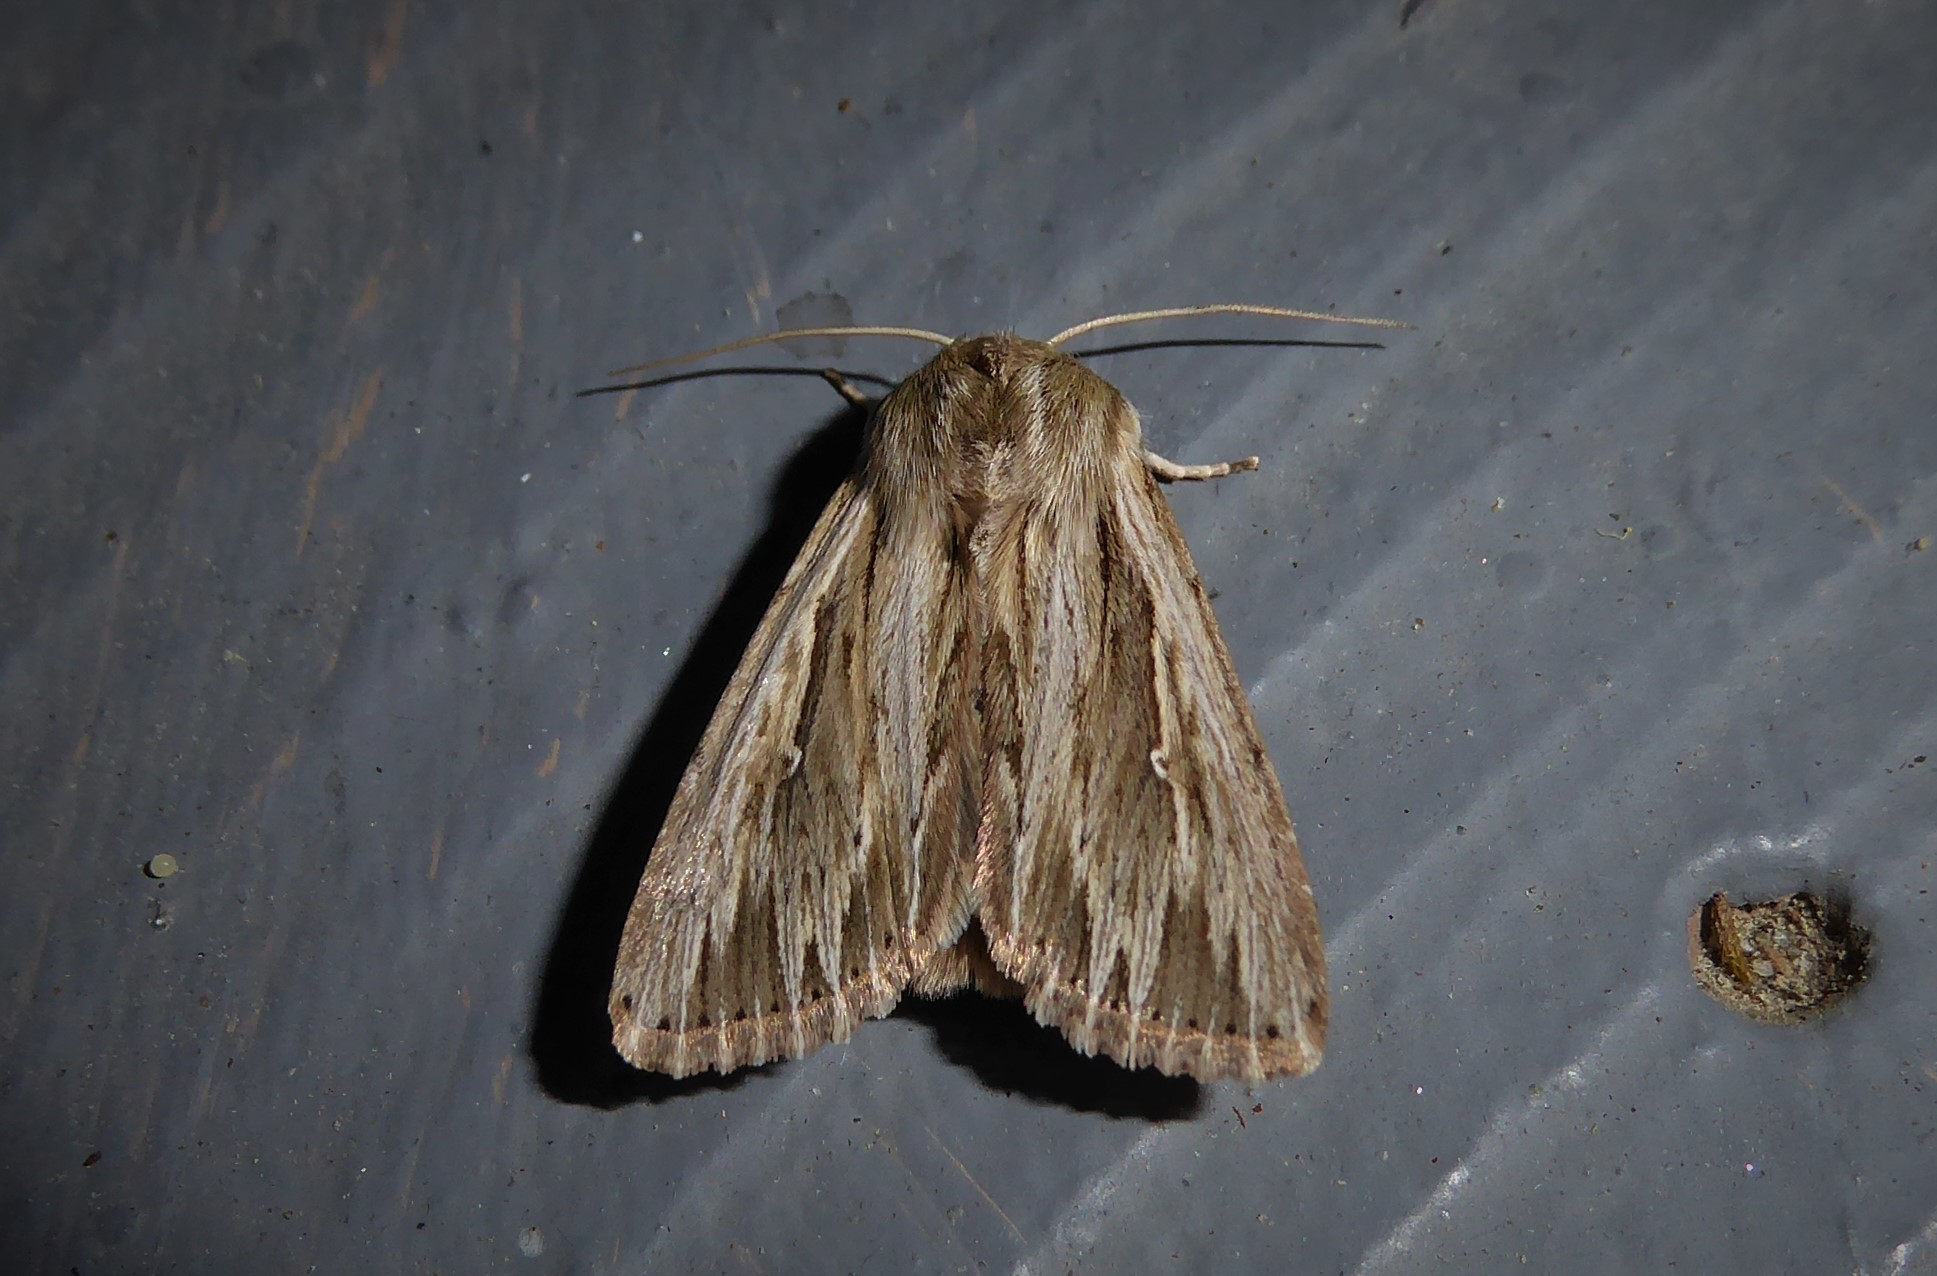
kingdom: Animalia
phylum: Arthropoda
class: Insecta
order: Lepidoptera
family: Noctuidae
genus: Persectania
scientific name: Persectania aversa
